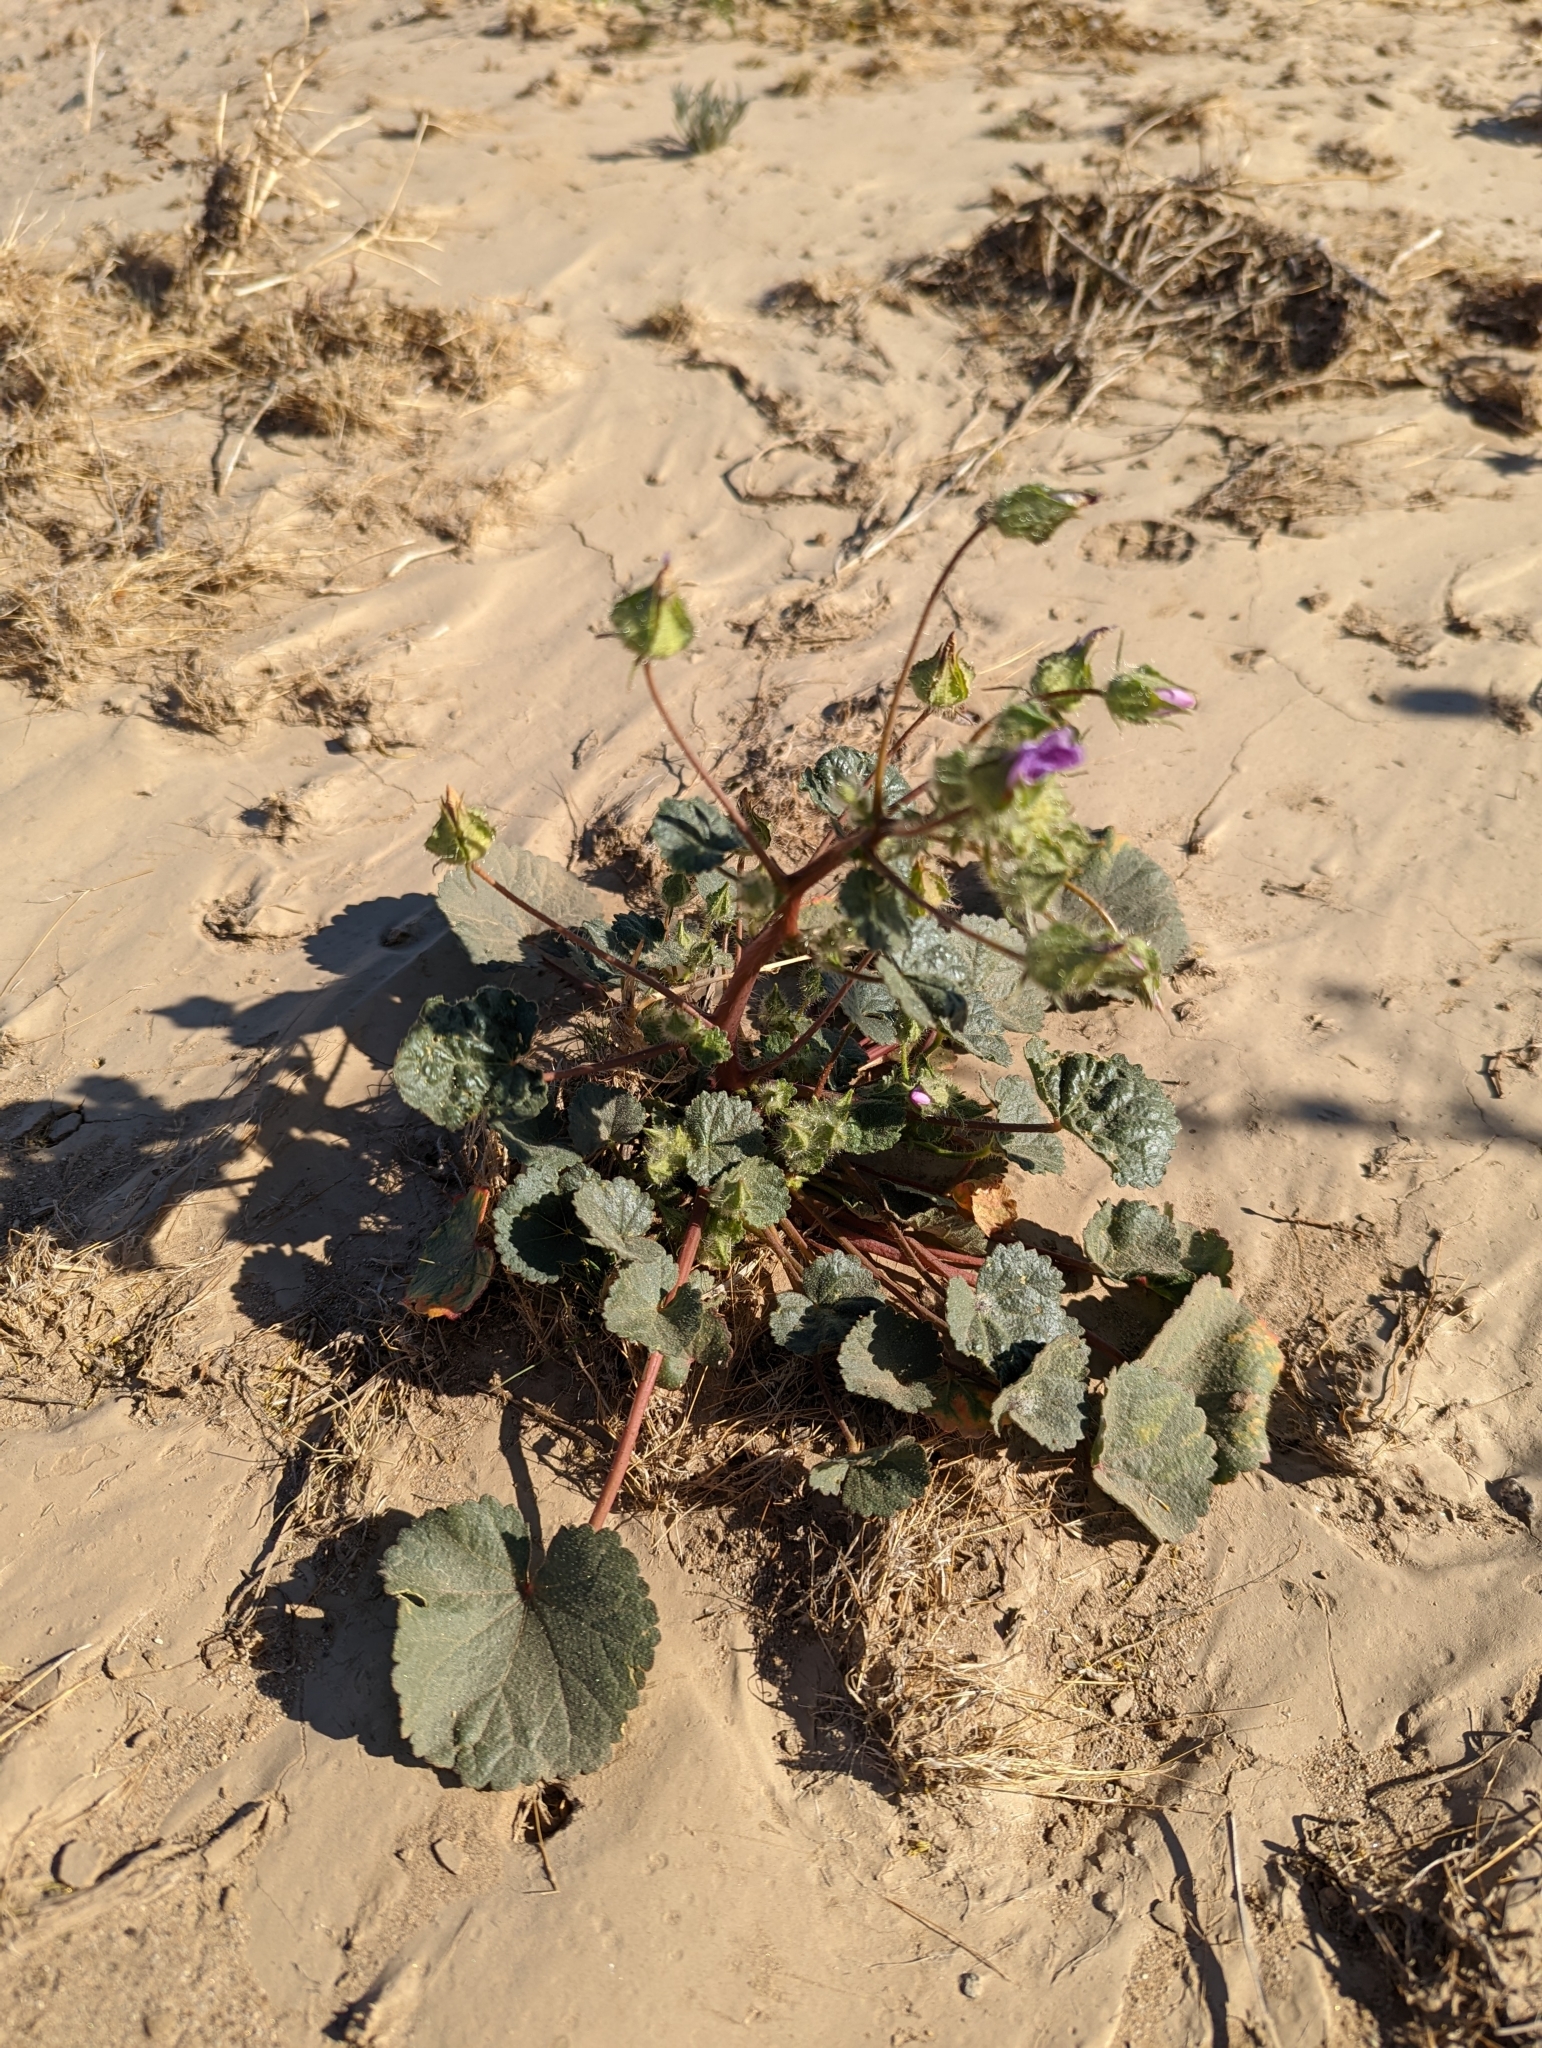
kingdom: Plantae
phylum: Tracheophyta
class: Magnoliopsida
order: Malvales
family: Malvaceae
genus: Eremalche
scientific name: Eremalche rotundifolia
